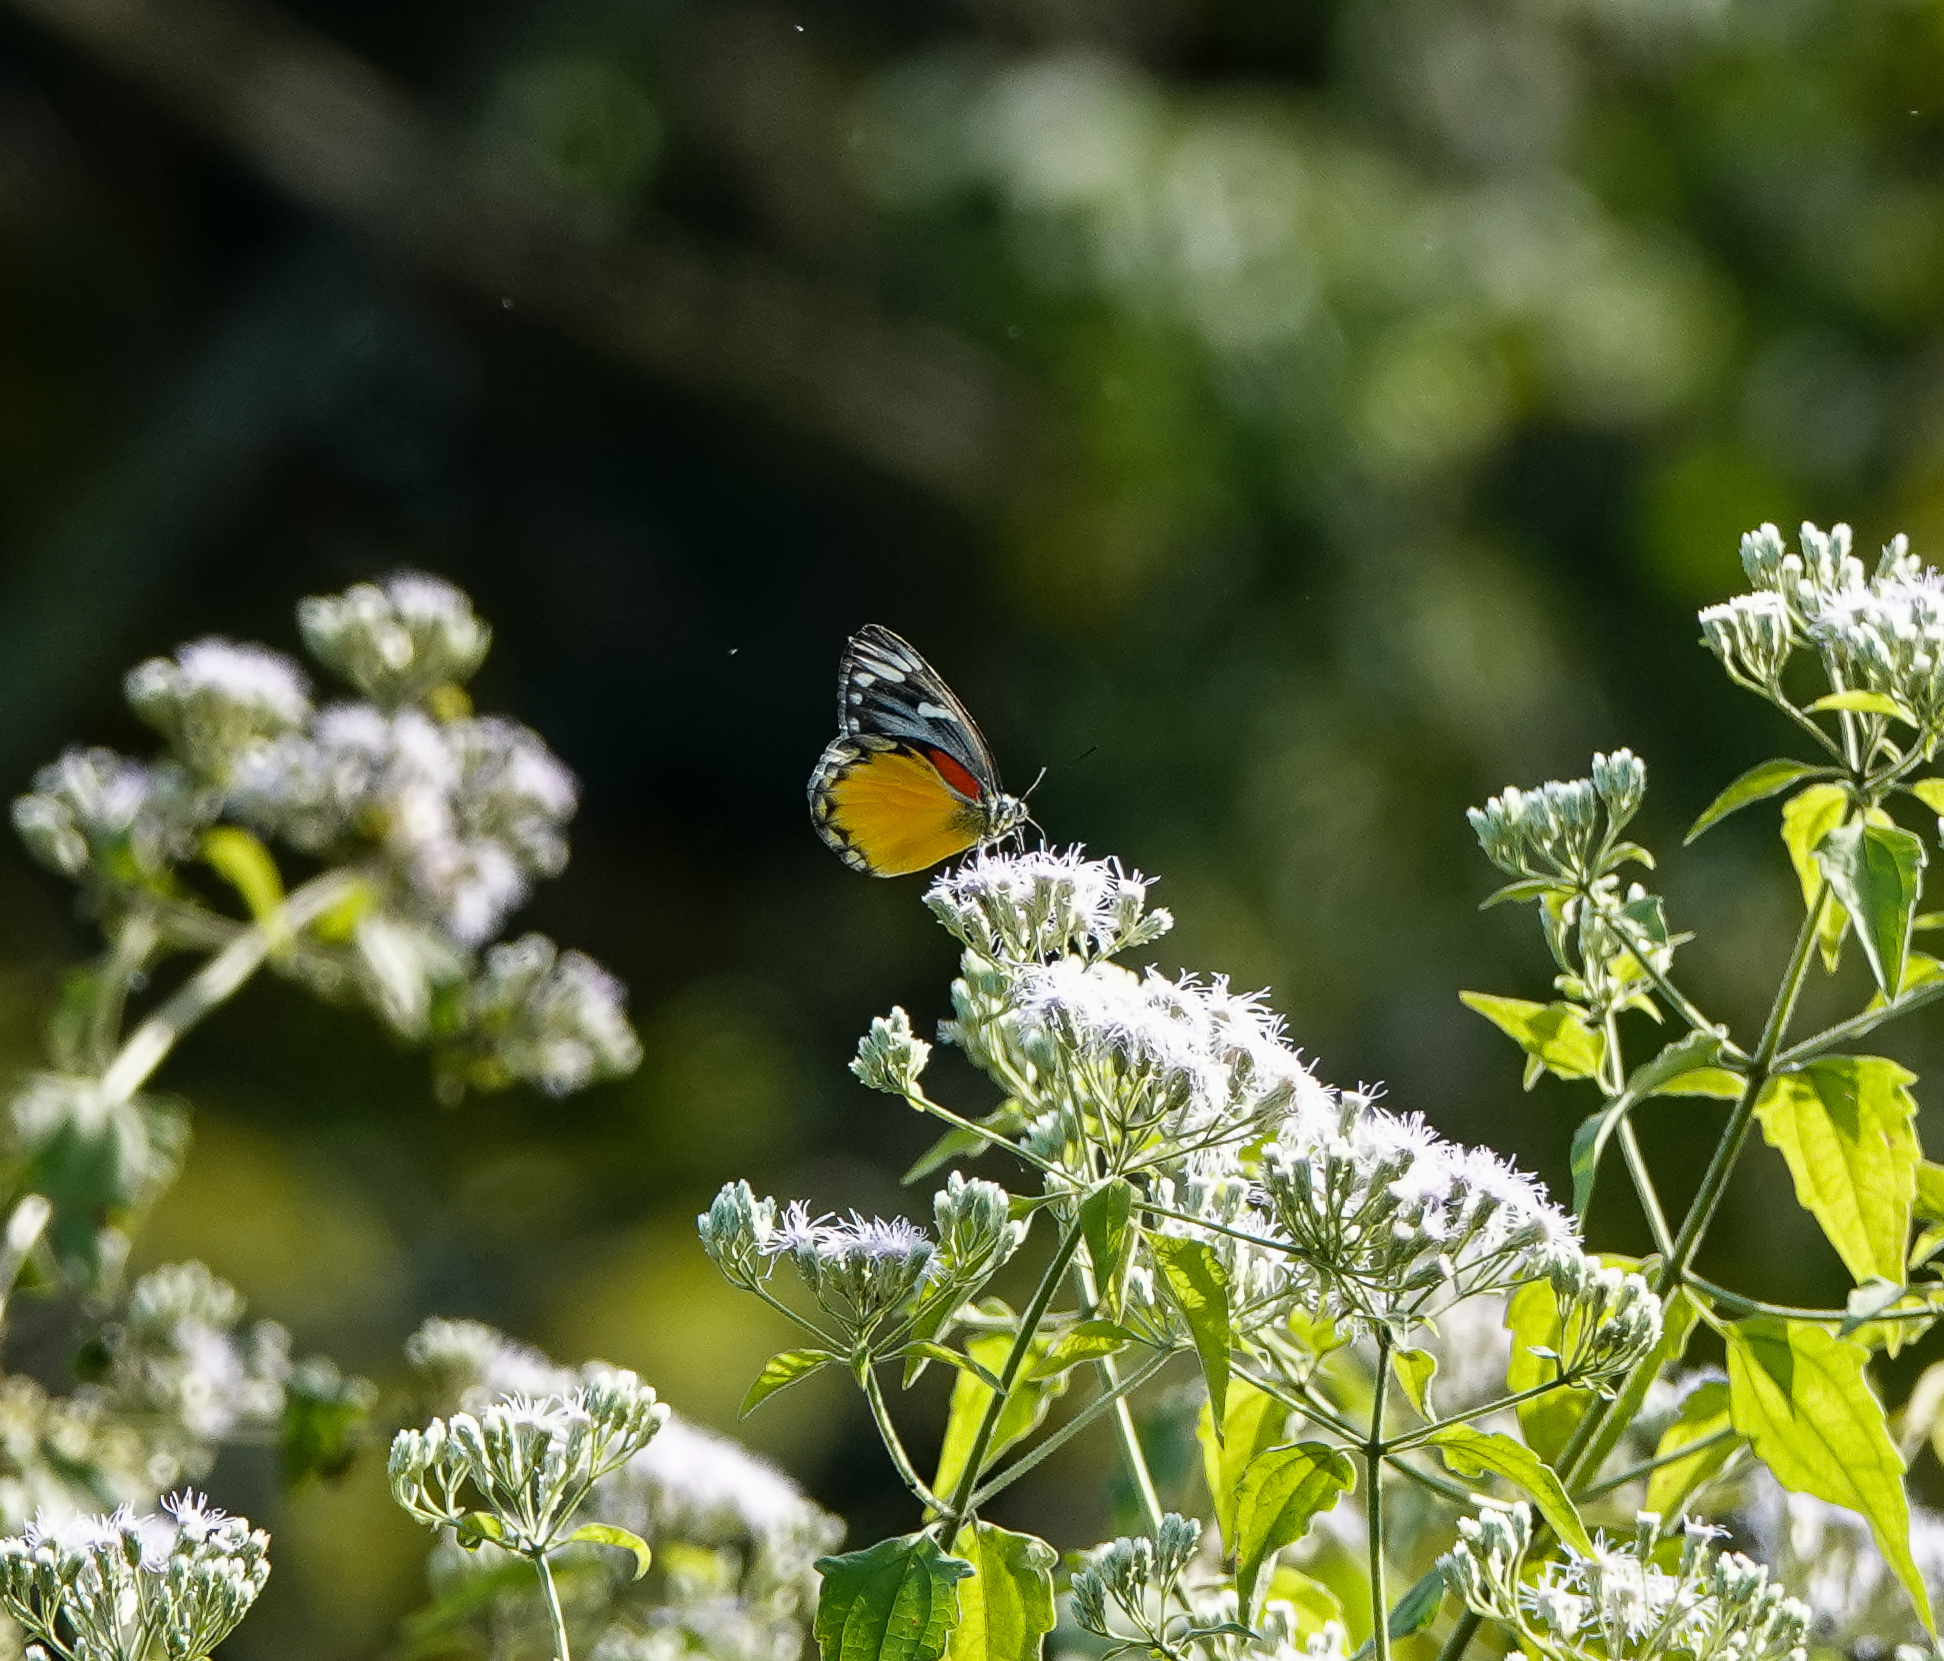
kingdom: Animalia
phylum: Arthropoda
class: Insecta
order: Lepidoptera
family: Pieridae
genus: Delias
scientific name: Delias descombesi
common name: Red-spot jezebel
